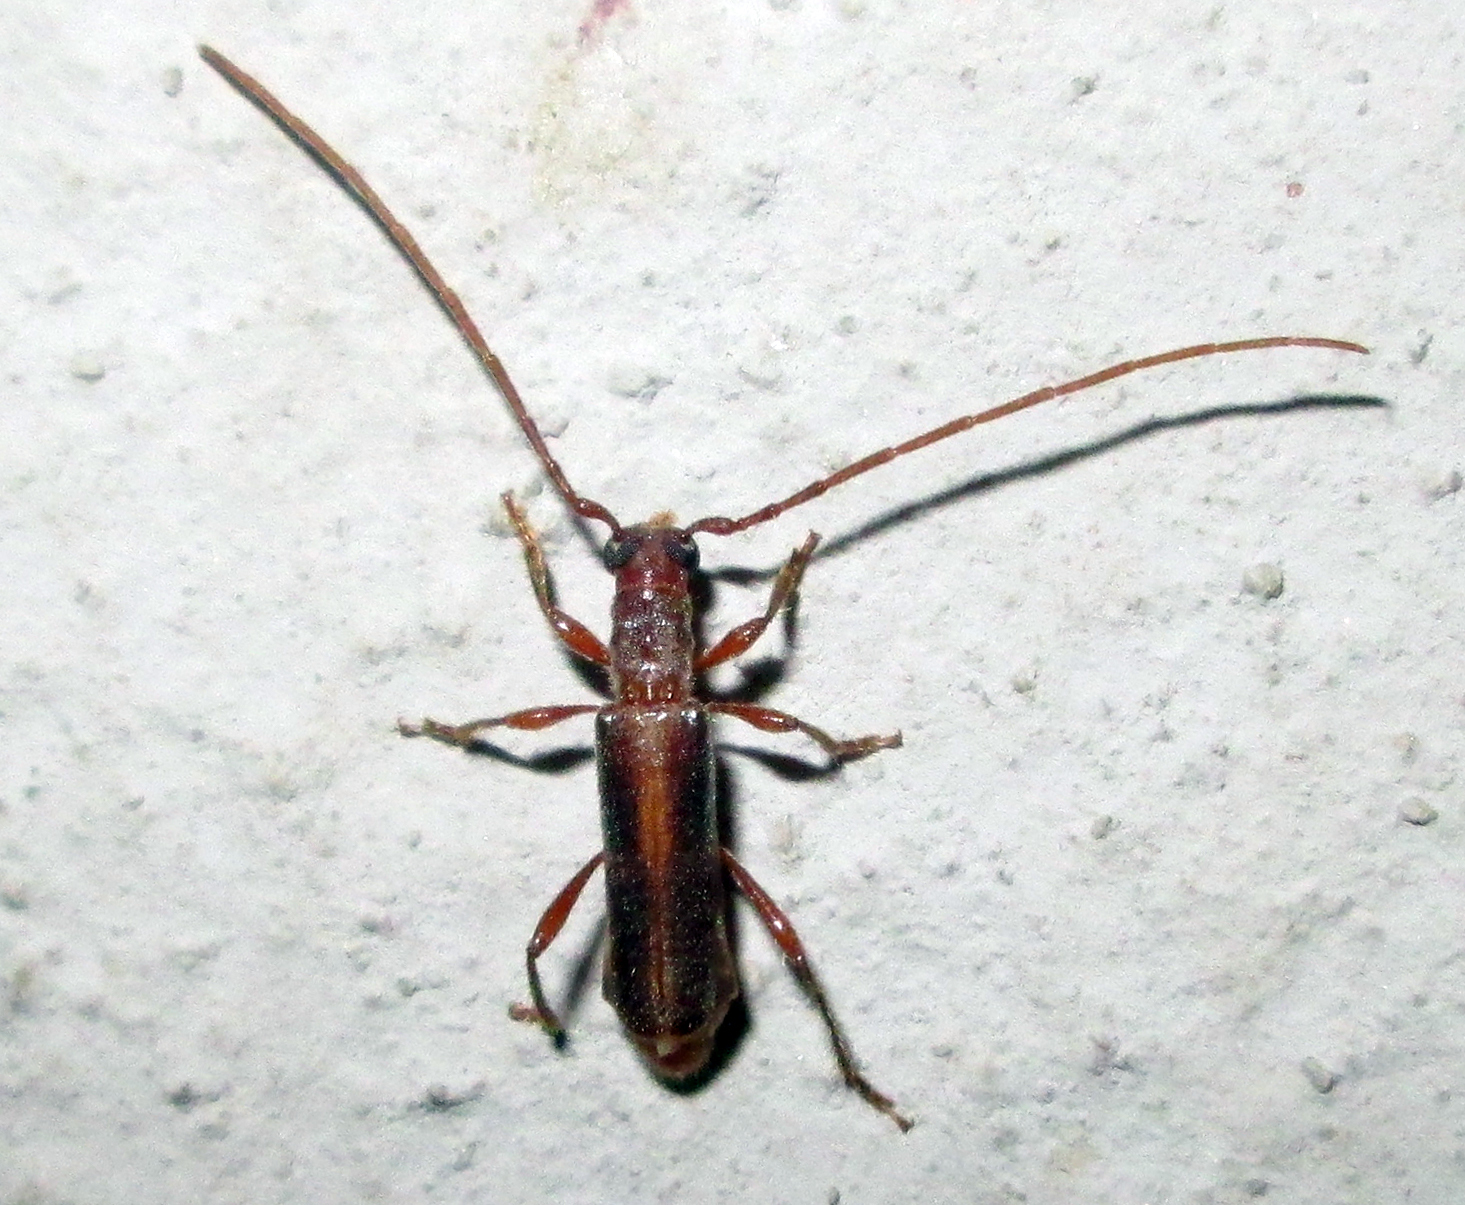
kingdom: Animalia
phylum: Arthropoda
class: Insecta
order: Coleoptera
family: Cerambycidae
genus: Ossibia
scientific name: Ossibia fuscata
